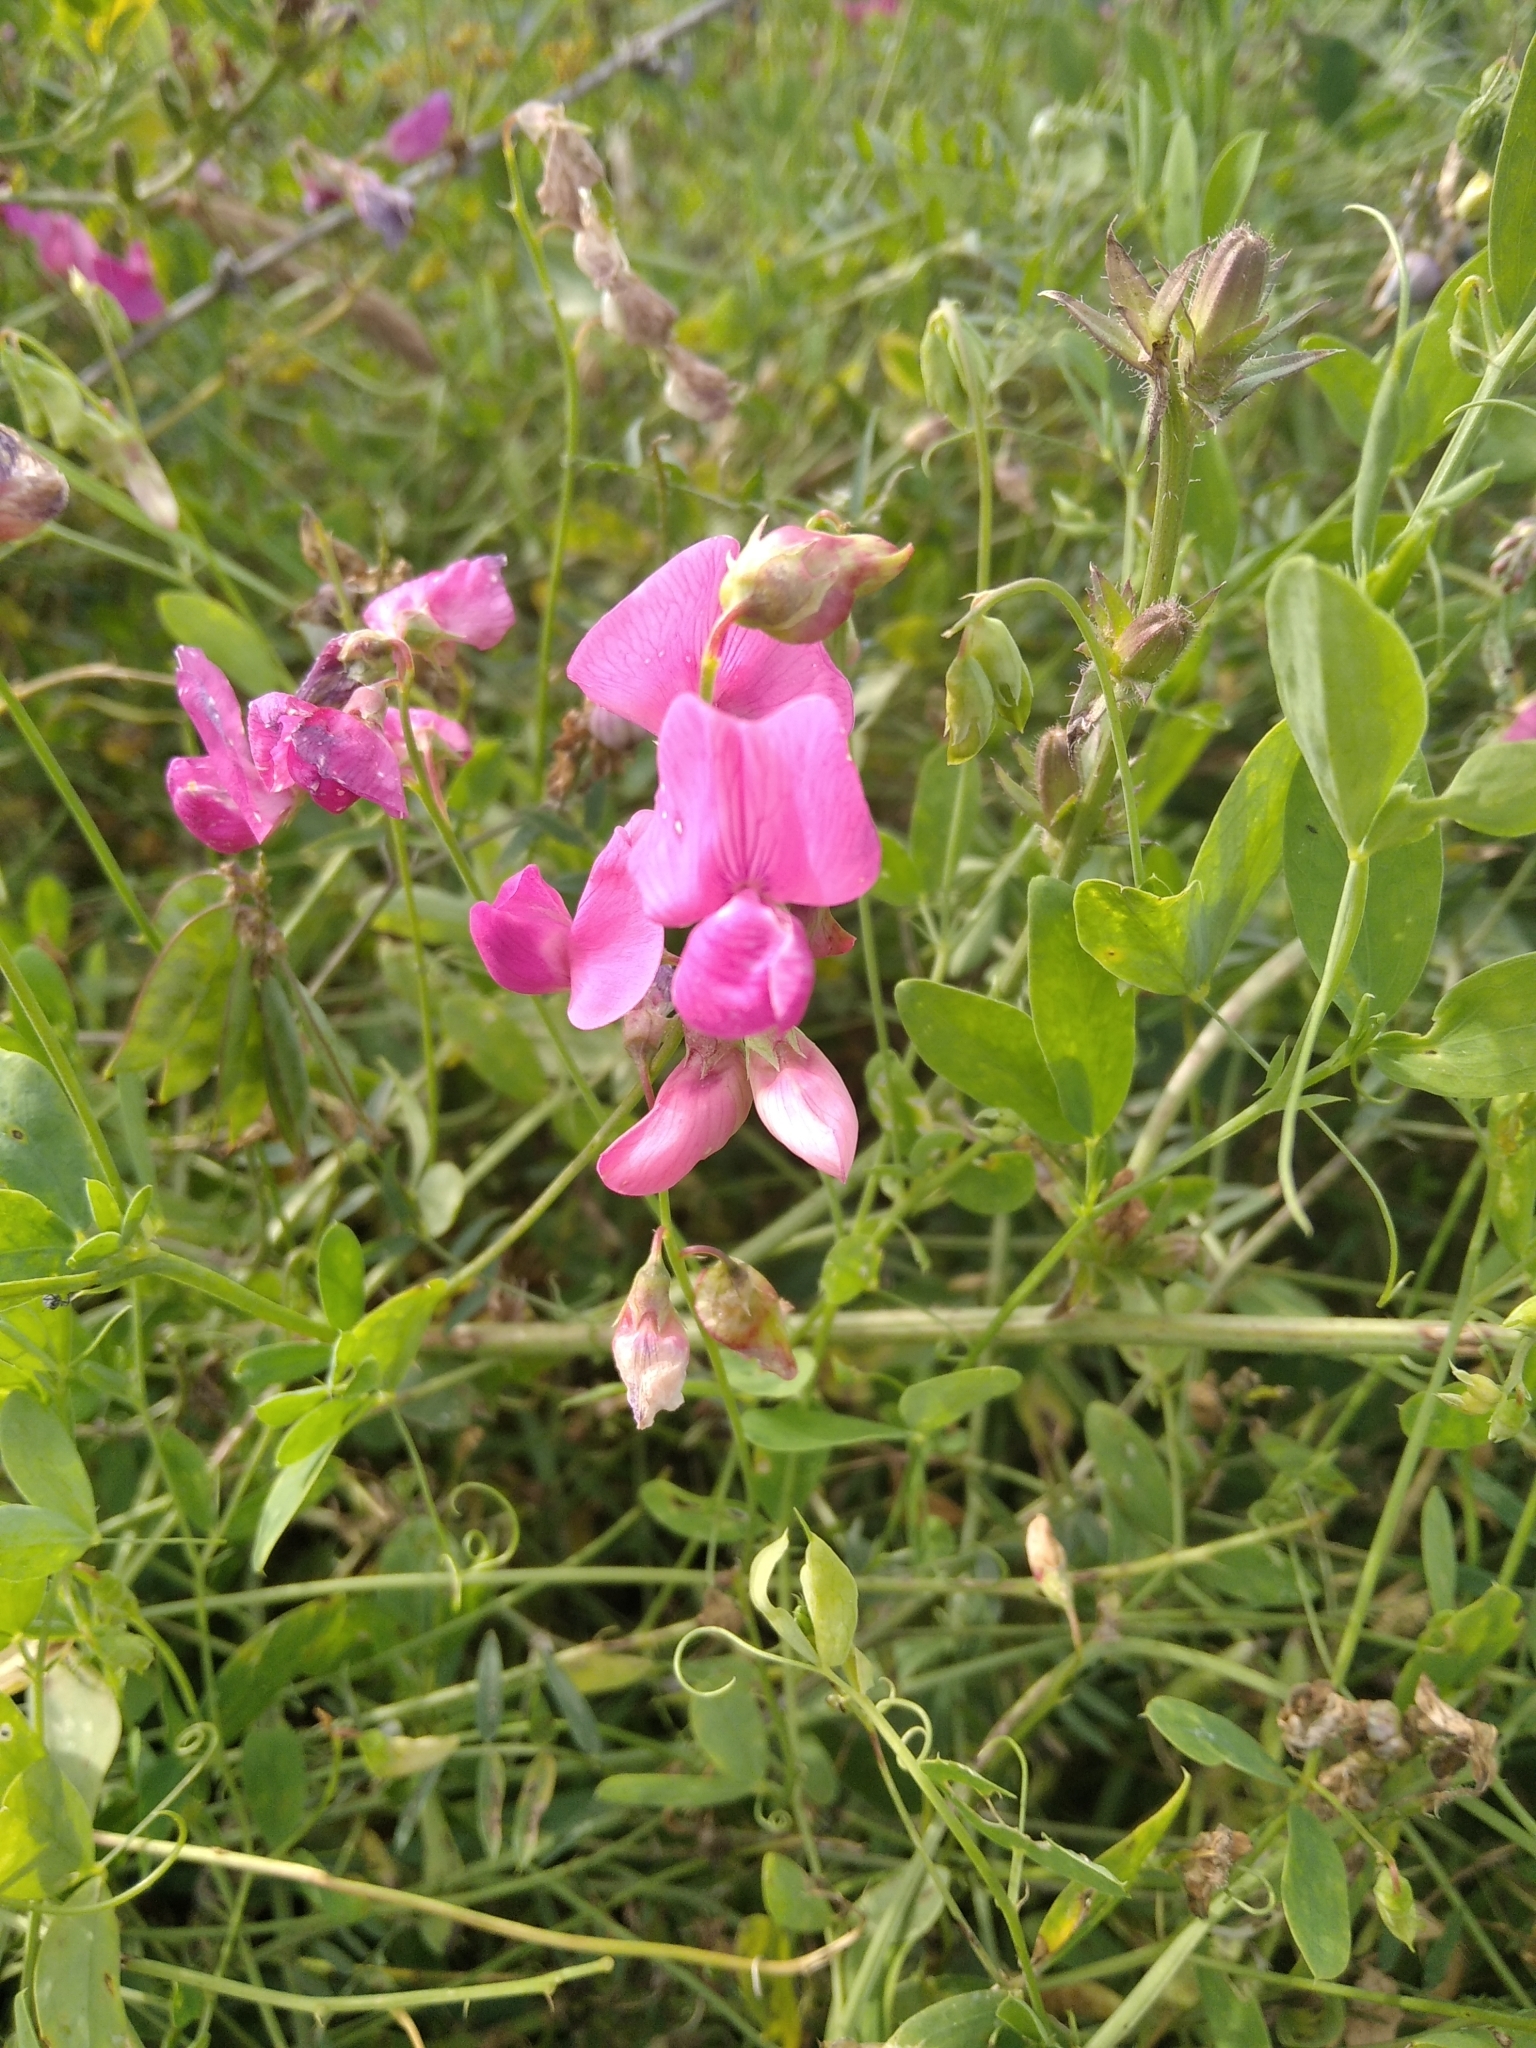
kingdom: Plantae
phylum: Tracheophyta
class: Magnoliopsida
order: Fabales
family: Fabaceae
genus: Lathyrus
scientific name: Lathyrus tuberosus
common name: Tuberous pea
